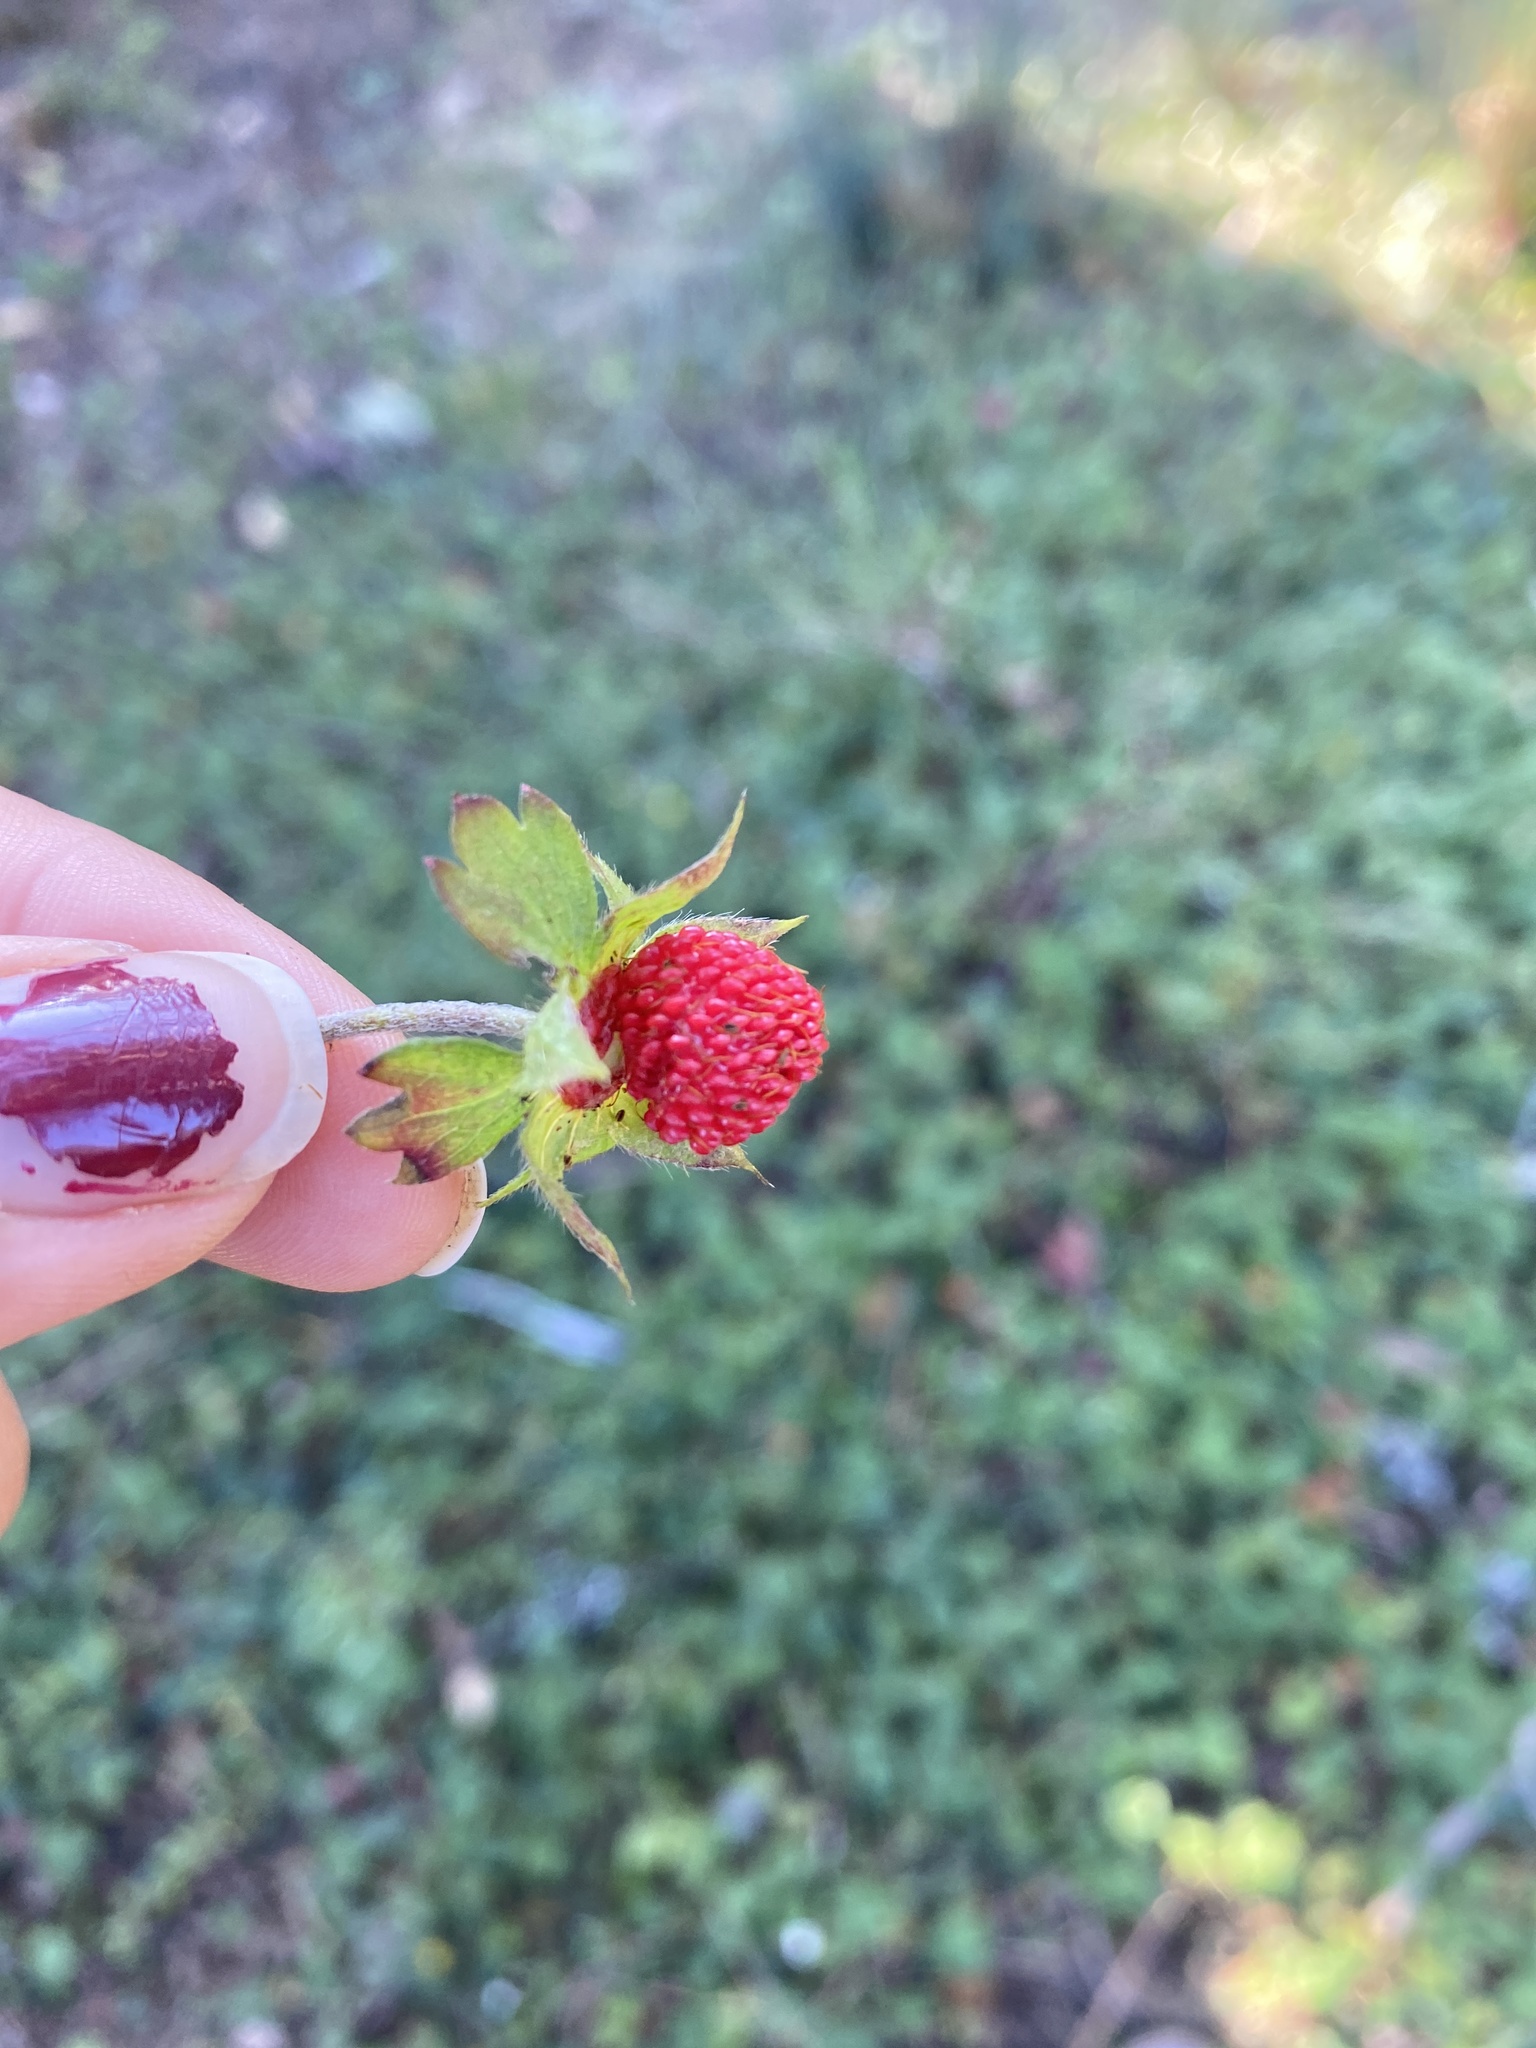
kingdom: Plantae
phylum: Tracheophyta
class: Magnoliopsida
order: Rosales
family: Rosaceae
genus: Potentilla
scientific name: Potentilla indica
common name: Yellow-flowered strawberry
